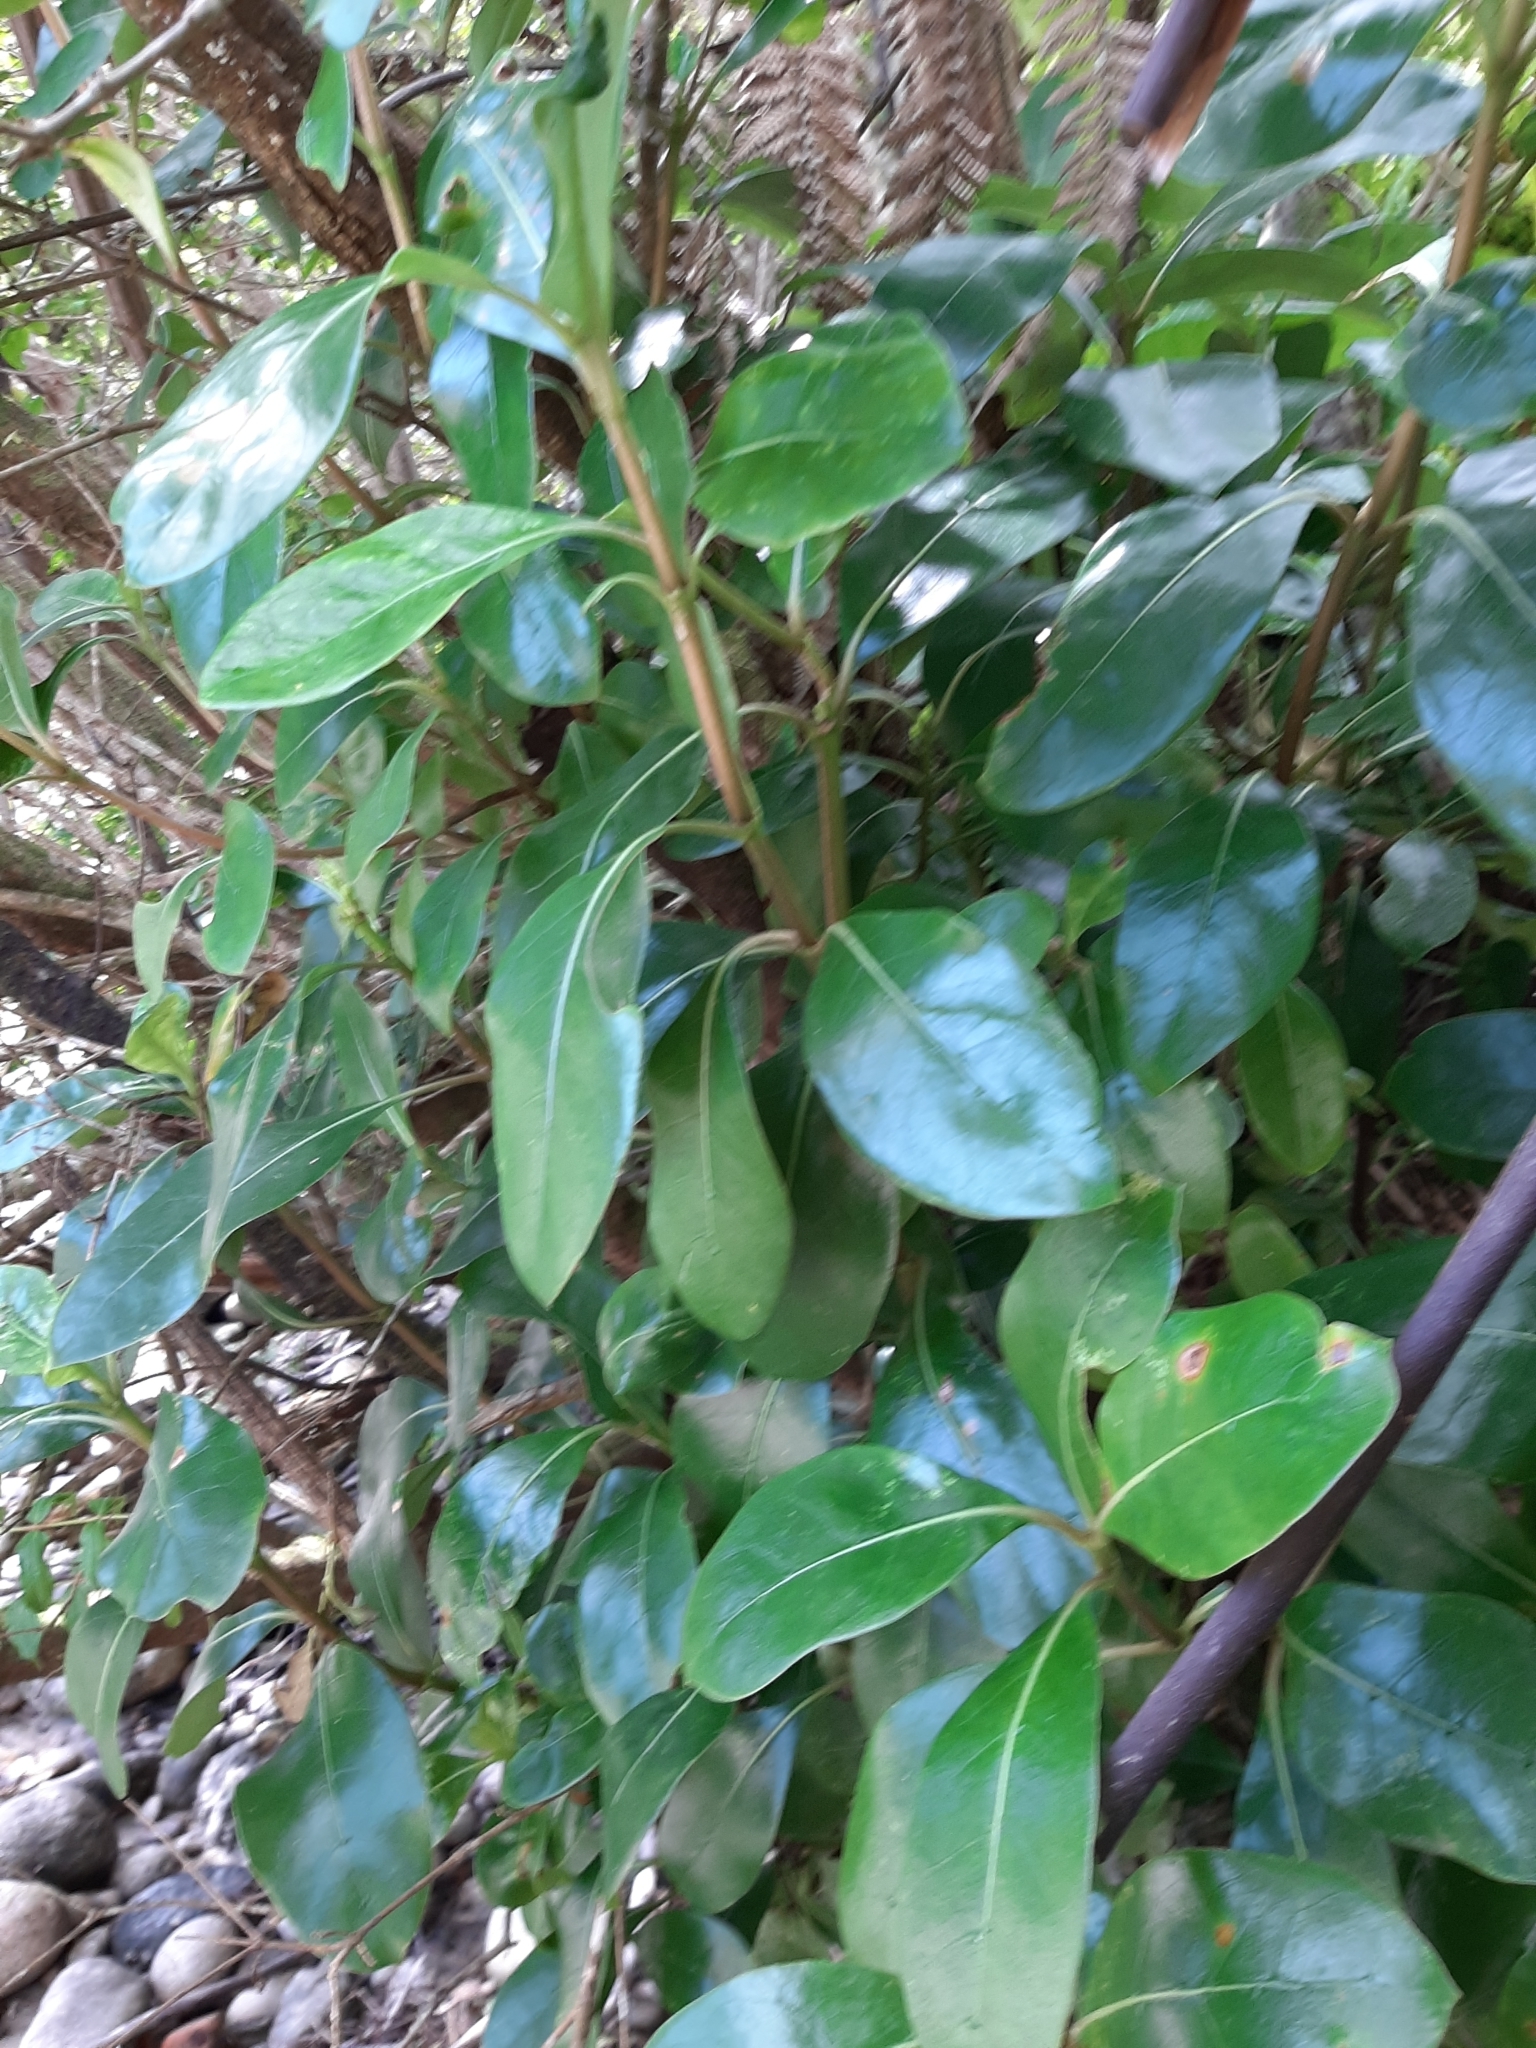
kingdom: Plantae
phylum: Tracheophyta
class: Magnoliopsida
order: Gentianales
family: Rubiaceae
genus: Coprosma
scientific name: Coprosma lucida
